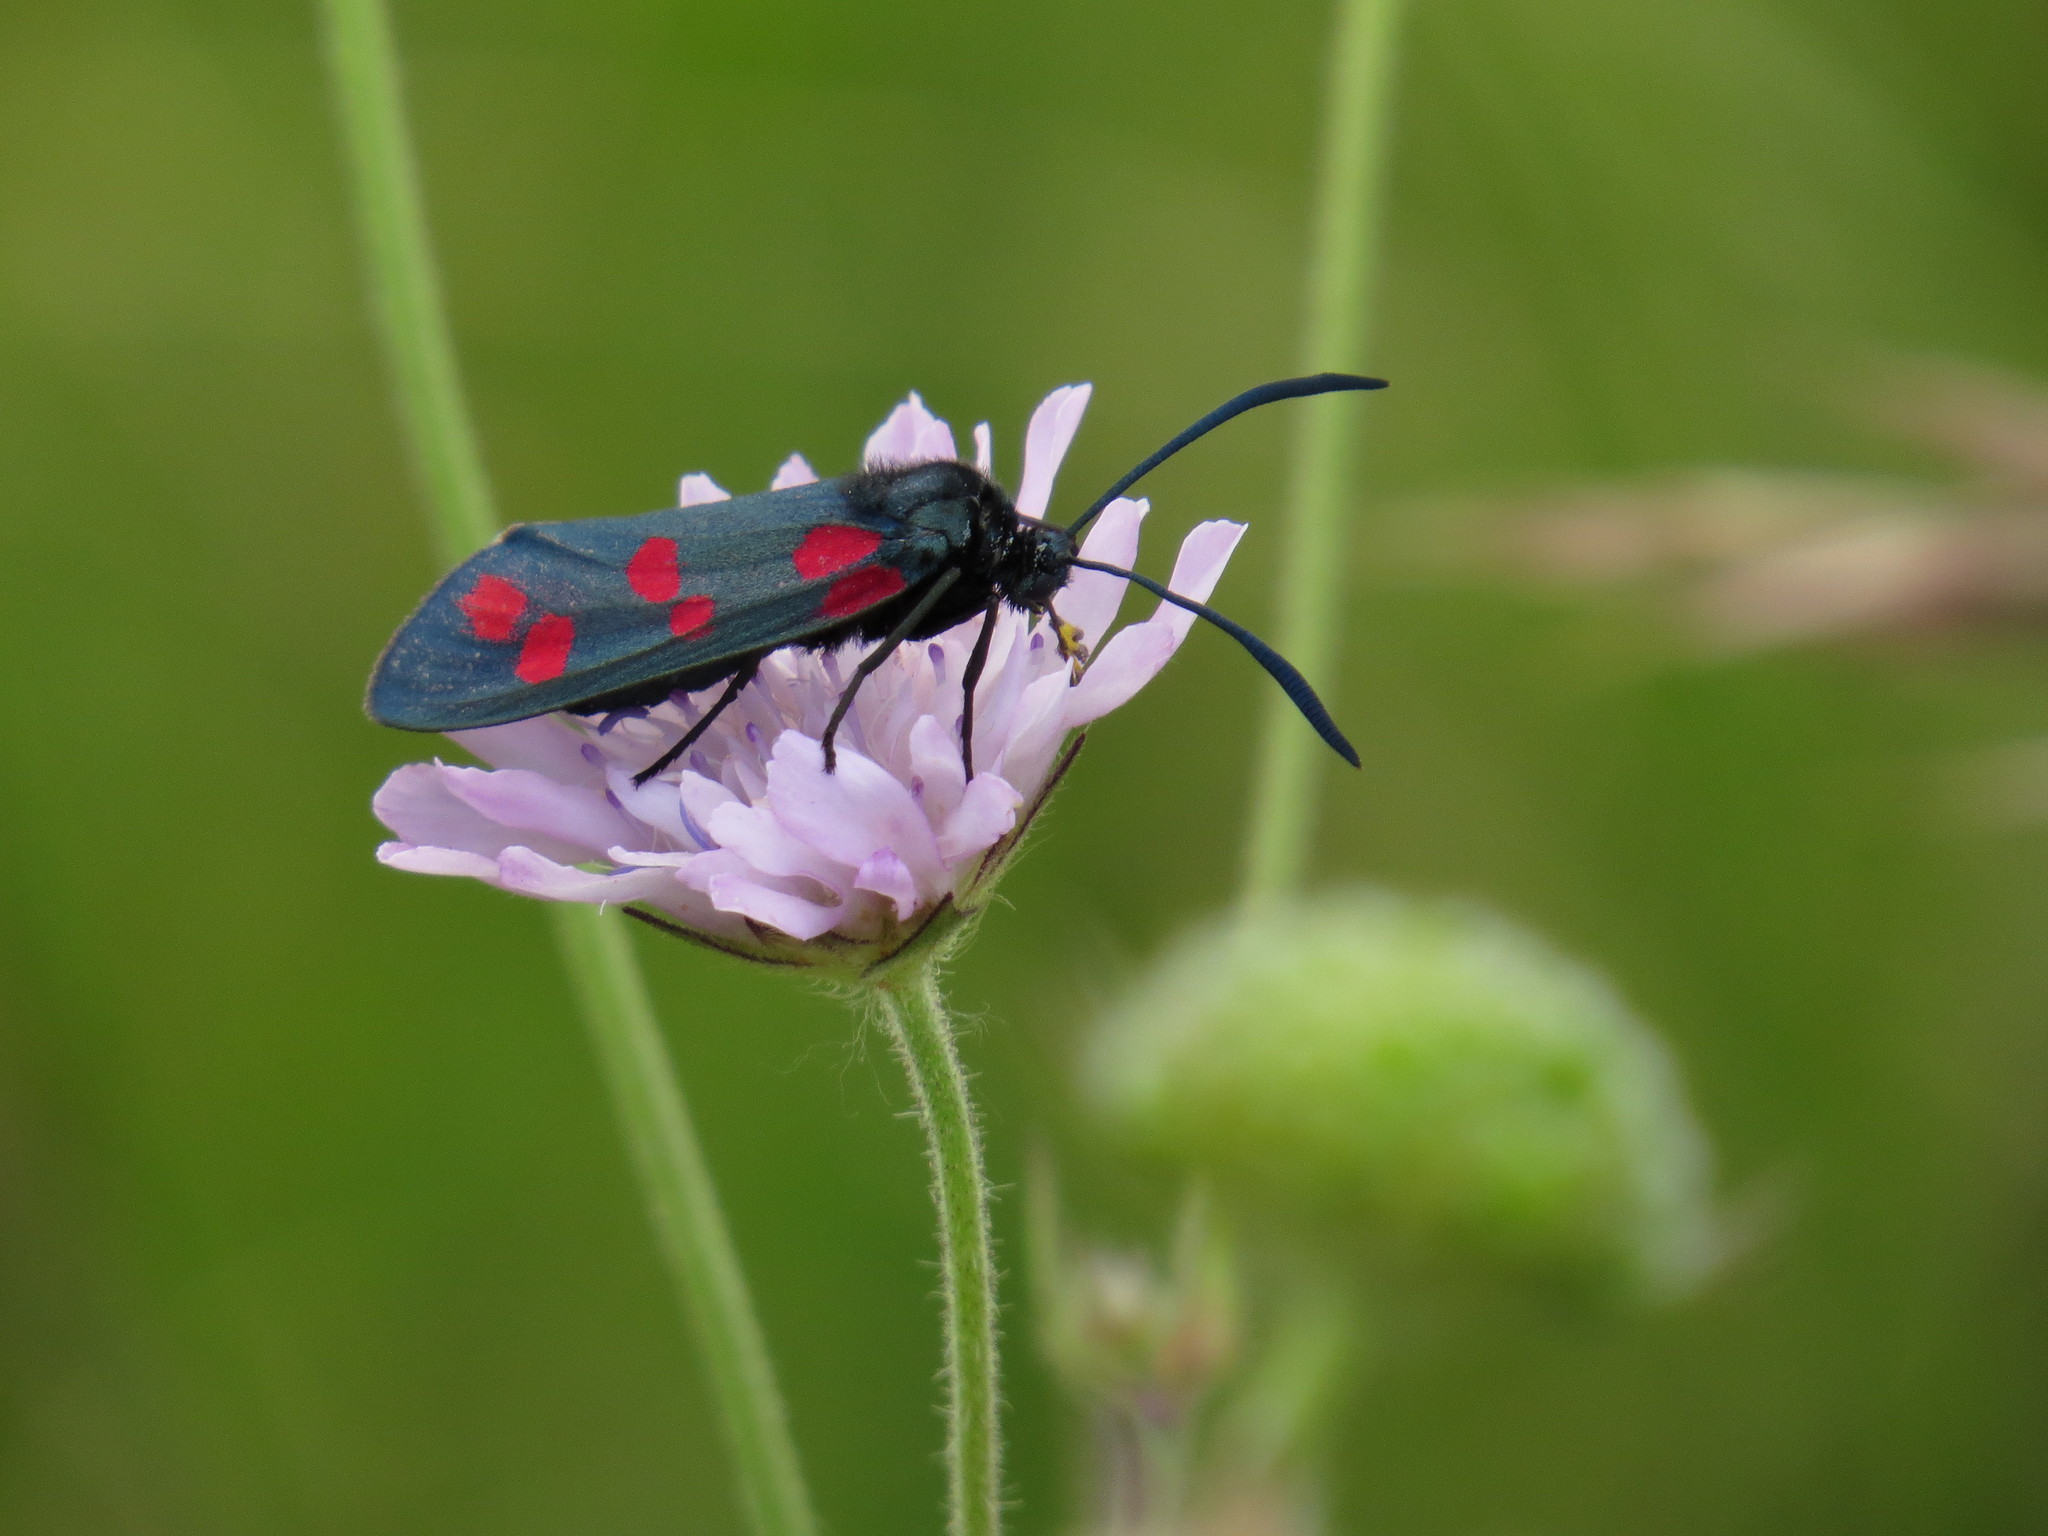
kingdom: Animalia
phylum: Arthropoda
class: Insecta
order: Lepidoptera
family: Zygaenidae
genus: Zygaena
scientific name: Zygaena filipendulae
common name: Six-spot burnet
